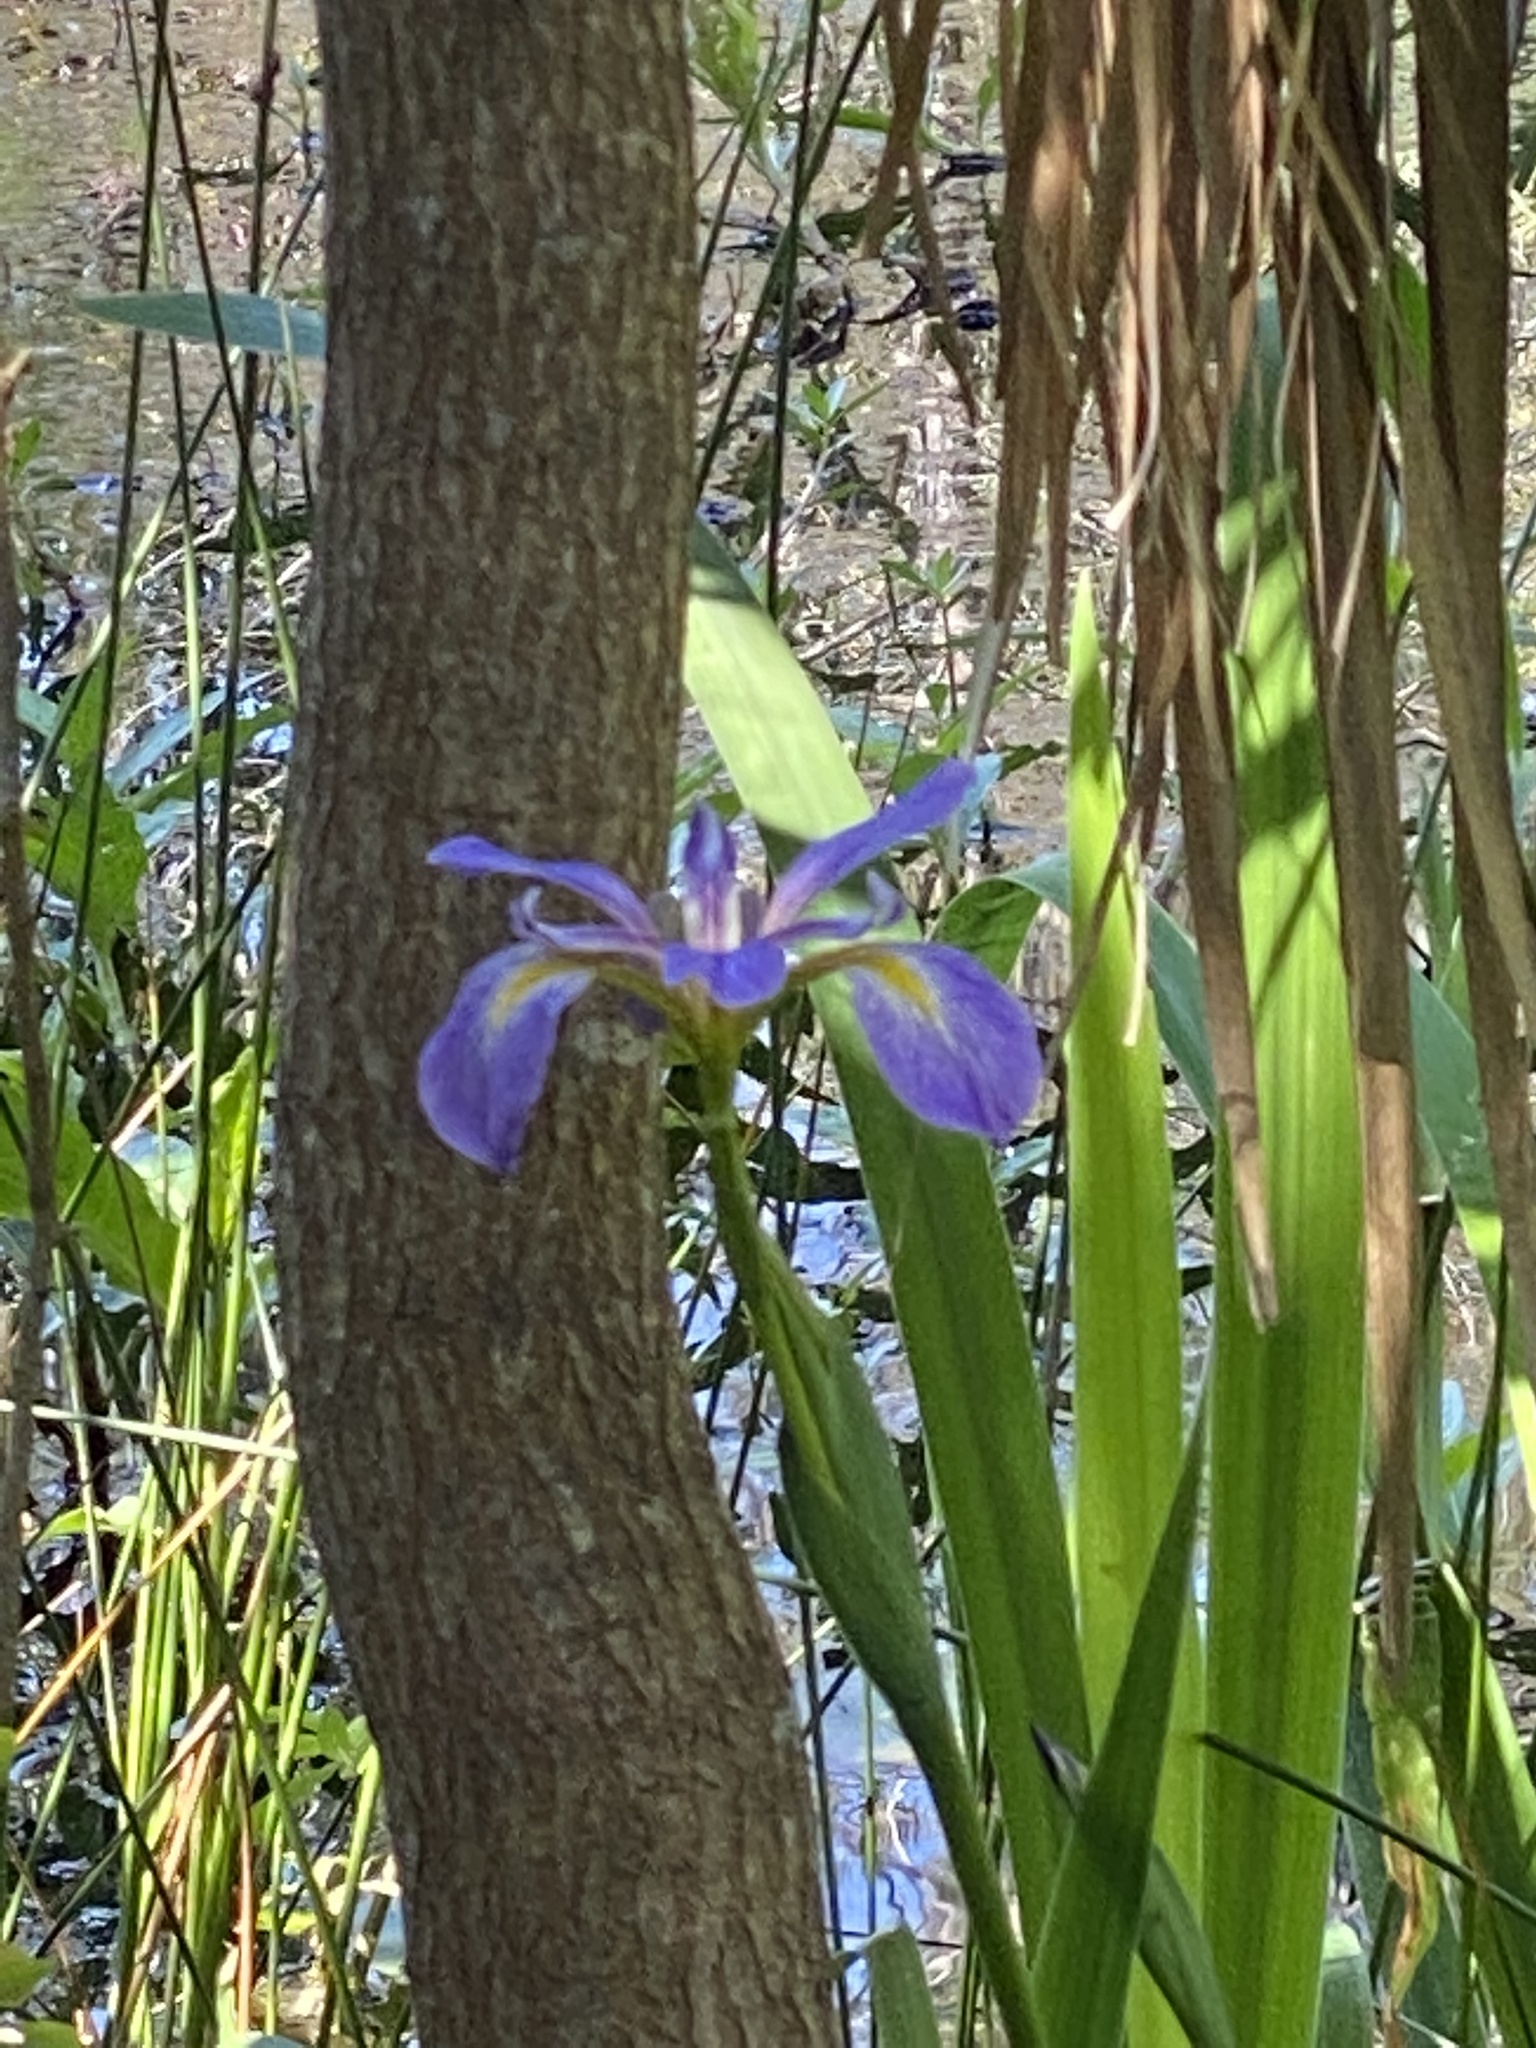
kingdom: Plantae
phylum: Tracheophyta
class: Liliopsida
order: Asparagales
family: Iridaceae
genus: Iris
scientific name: Iris giganticaerulea
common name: Giant blue iris
